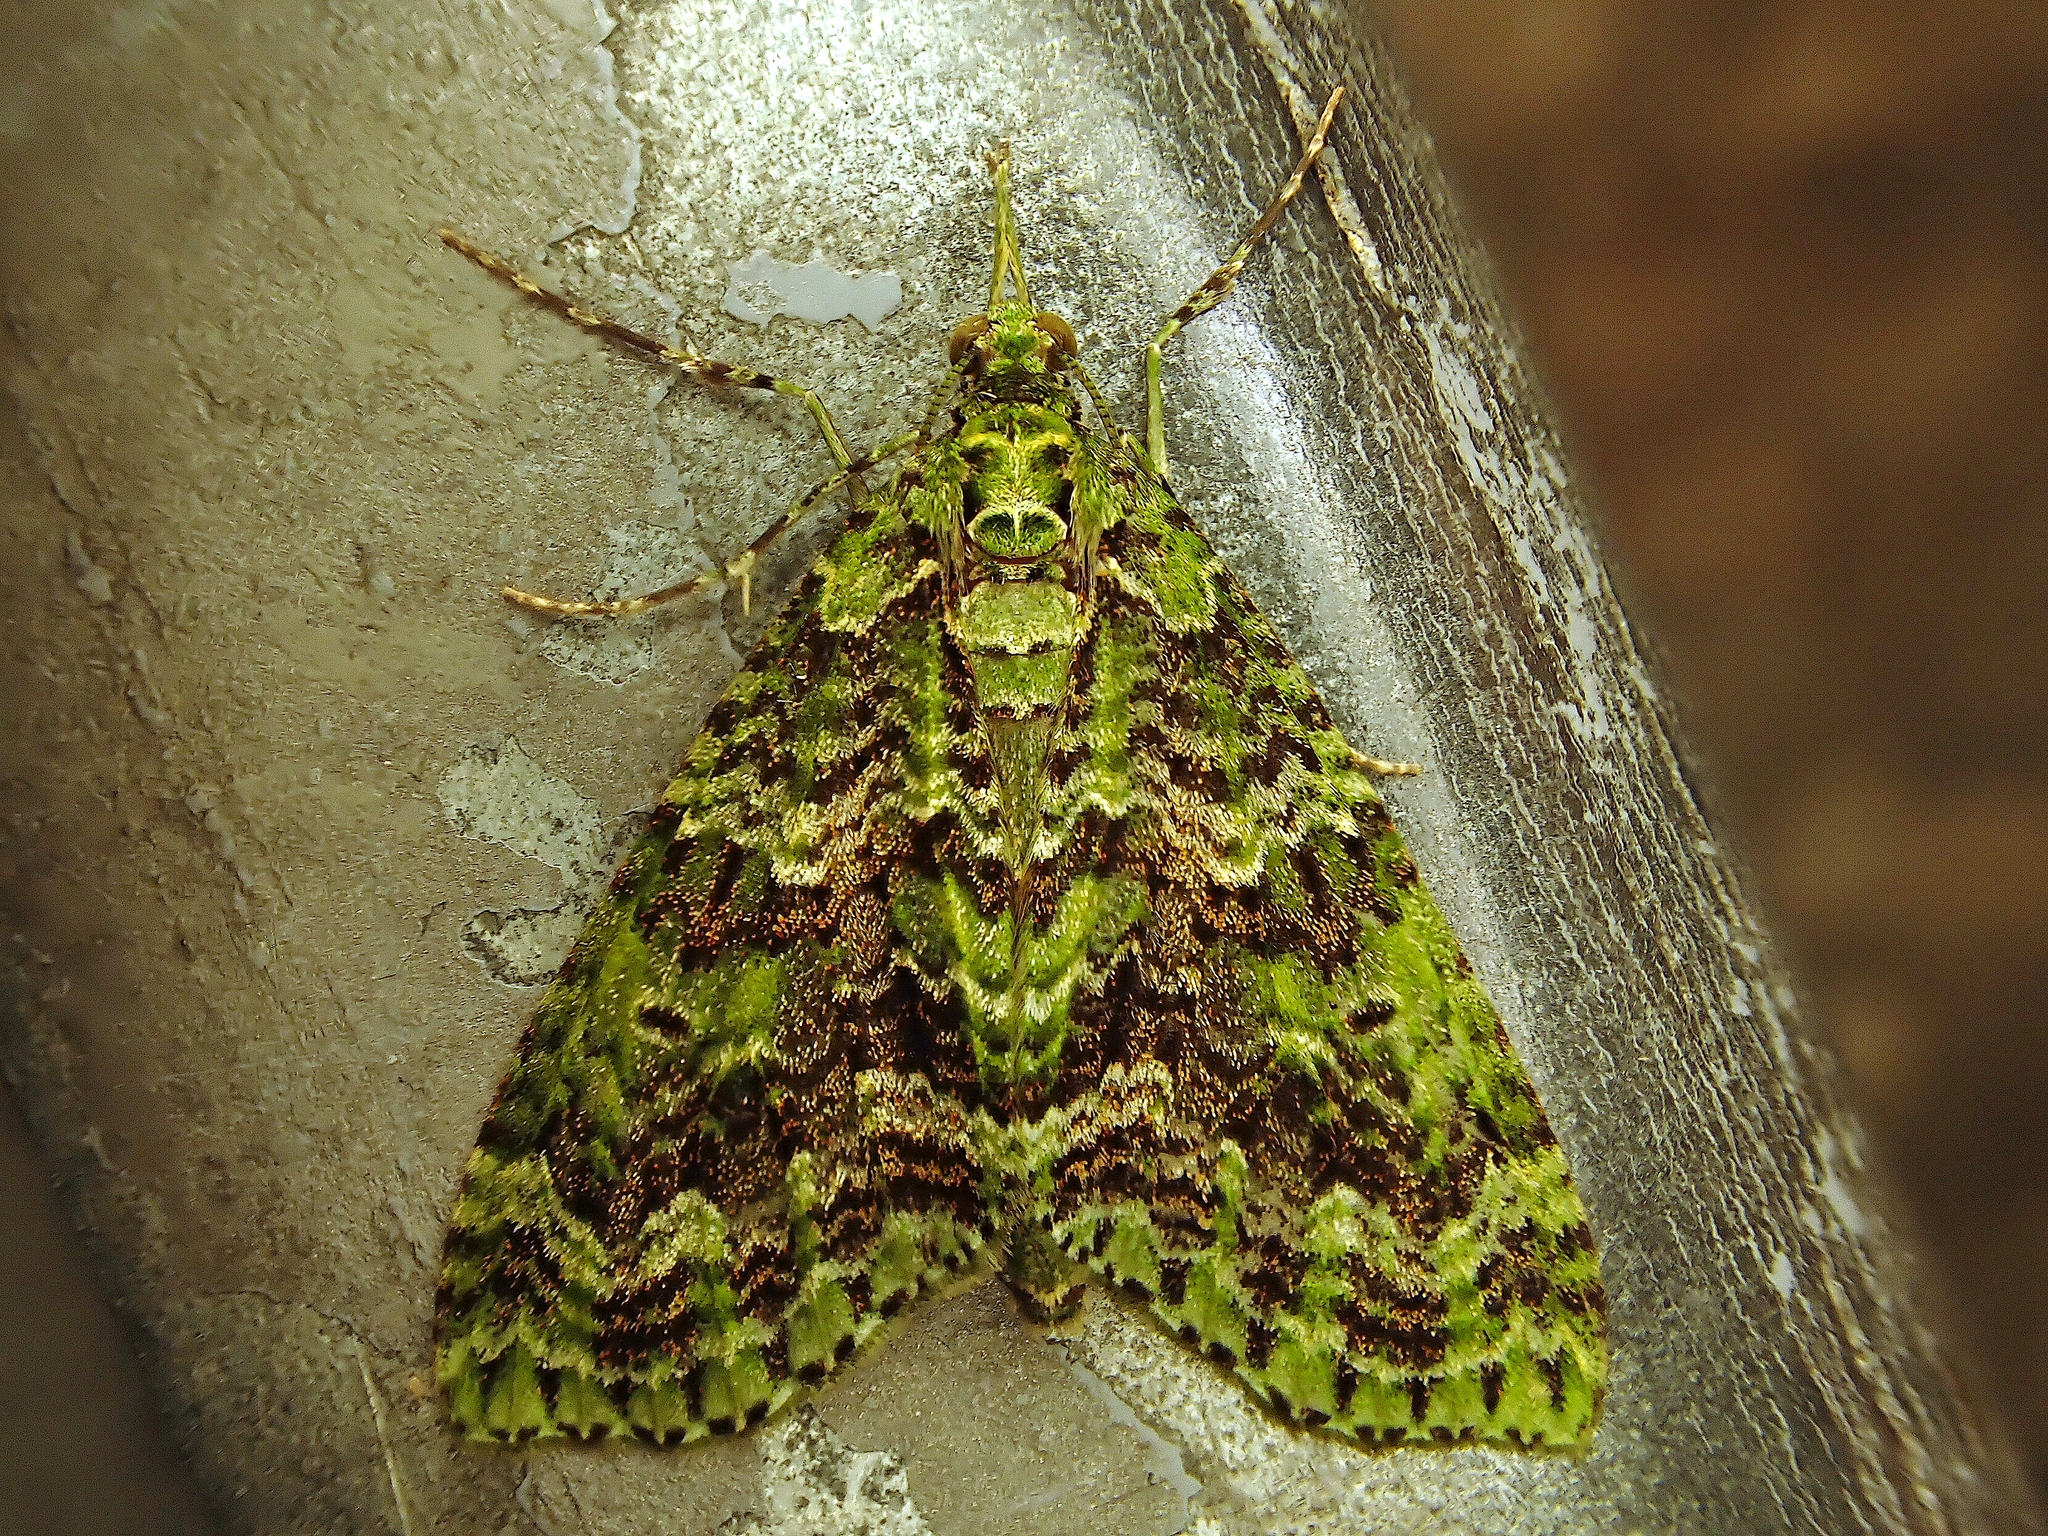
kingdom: Animalia
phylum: Arthropoda
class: Insecta
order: Lepidoptera
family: Geometridae
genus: Tatosoma
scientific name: Tatosoma tipulata
